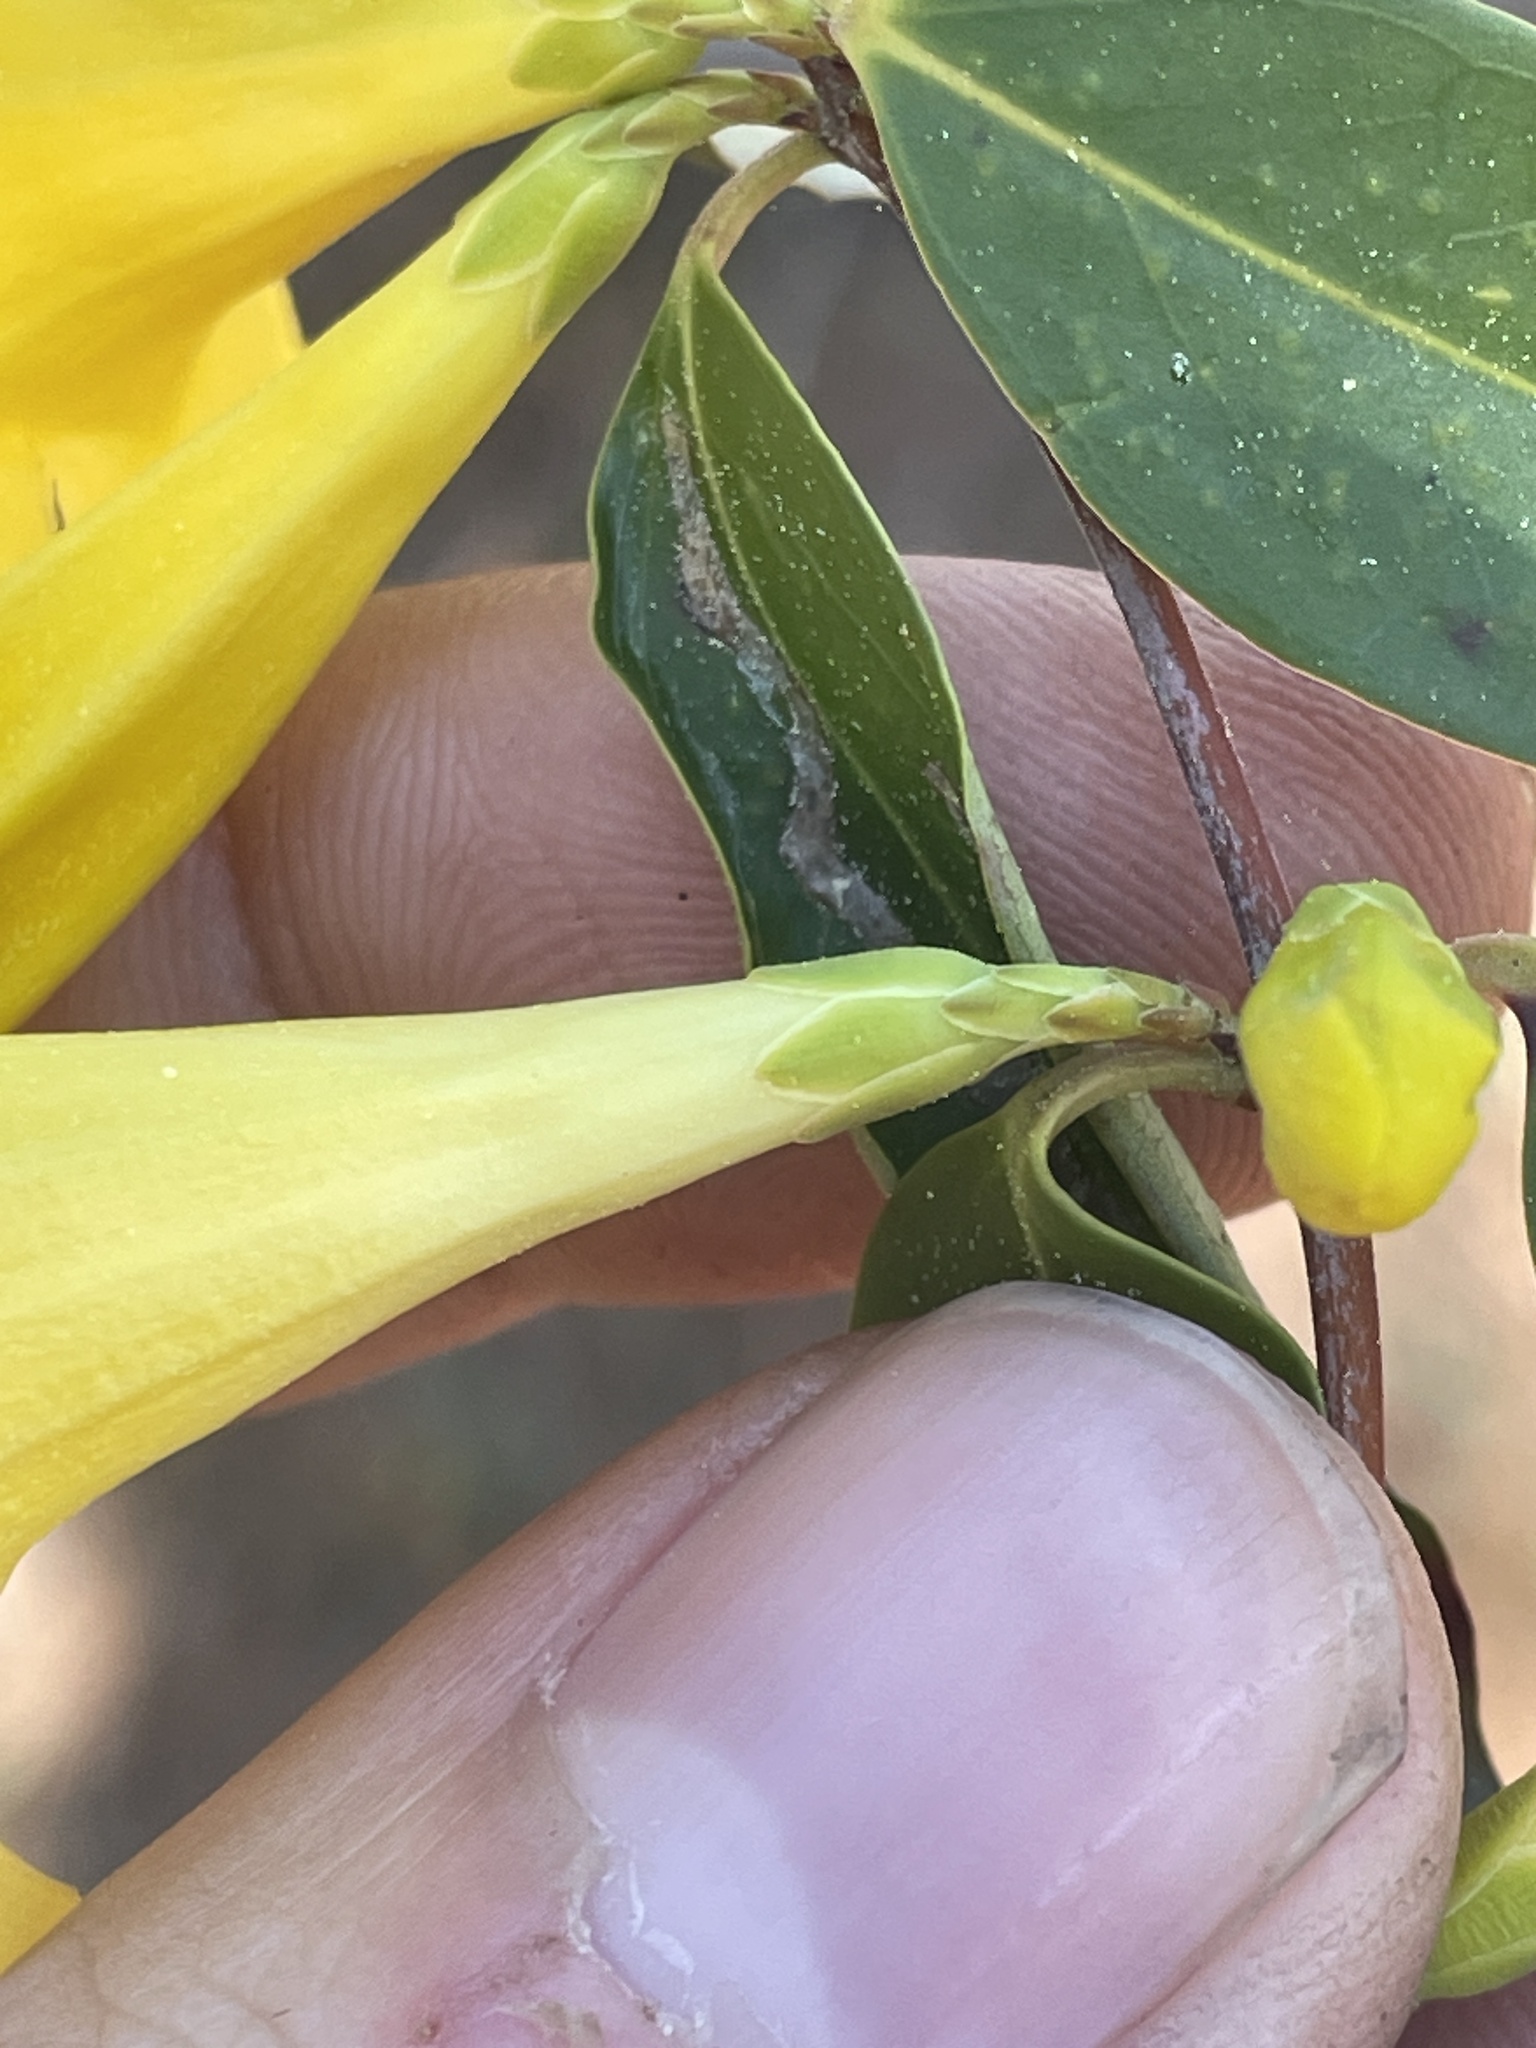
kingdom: Plantae
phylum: Tracheophyta
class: Magnoliopsida
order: Gentianales
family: Gelsemiaceae
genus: Gelsemium
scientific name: Gelsemium sempervirens
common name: Carolina-jasmine
